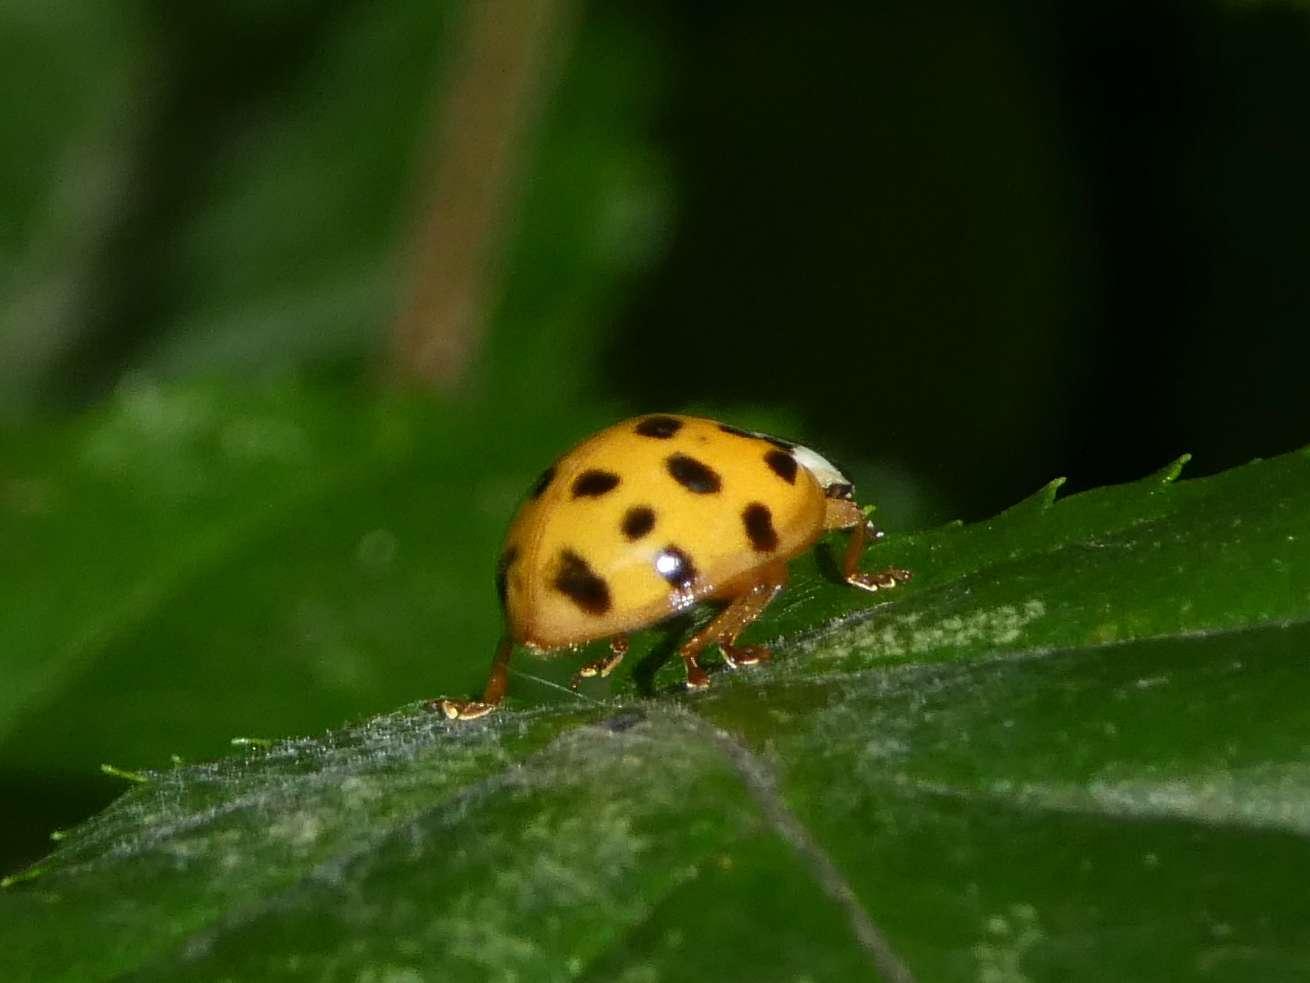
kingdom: Animalia
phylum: Arthropoda
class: Insecta
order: Coleoptera
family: Coccinellidae
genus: Harmonia
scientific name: Harmonia axyridis
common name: Harlequin ladybird
